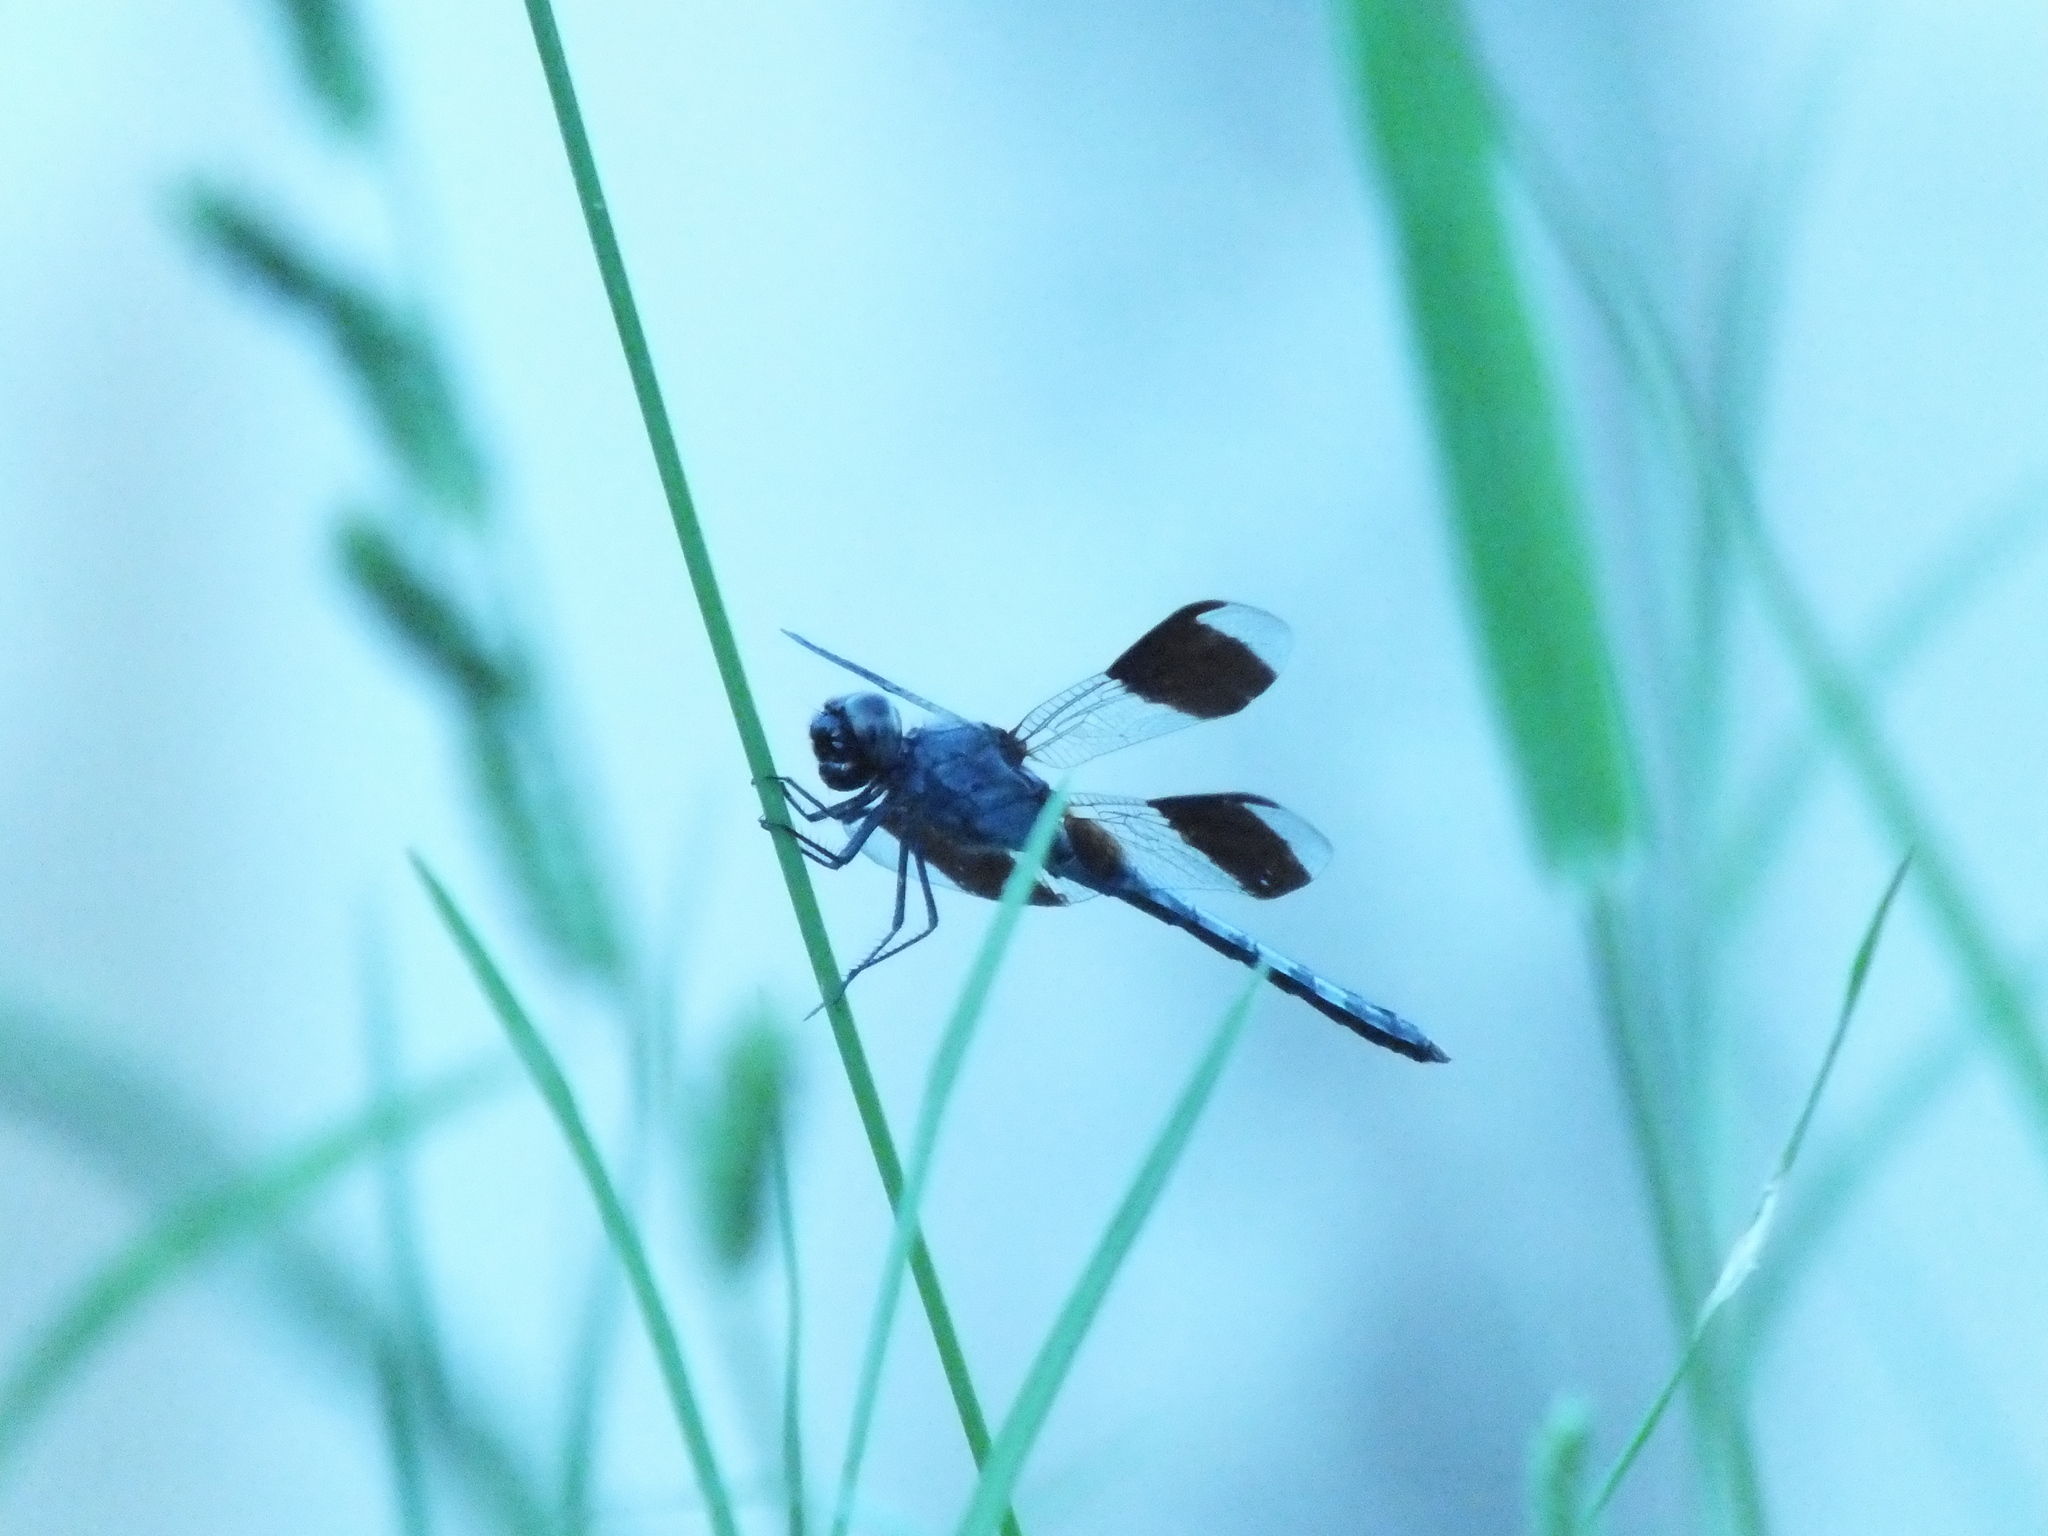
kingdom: Animalia
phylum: Arthropoda
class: Insecta
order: Odonata
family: Libellulidae
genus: Erythrodiplax
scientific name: Erythrodiplax umbrata
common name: Band-winged dragonlet
